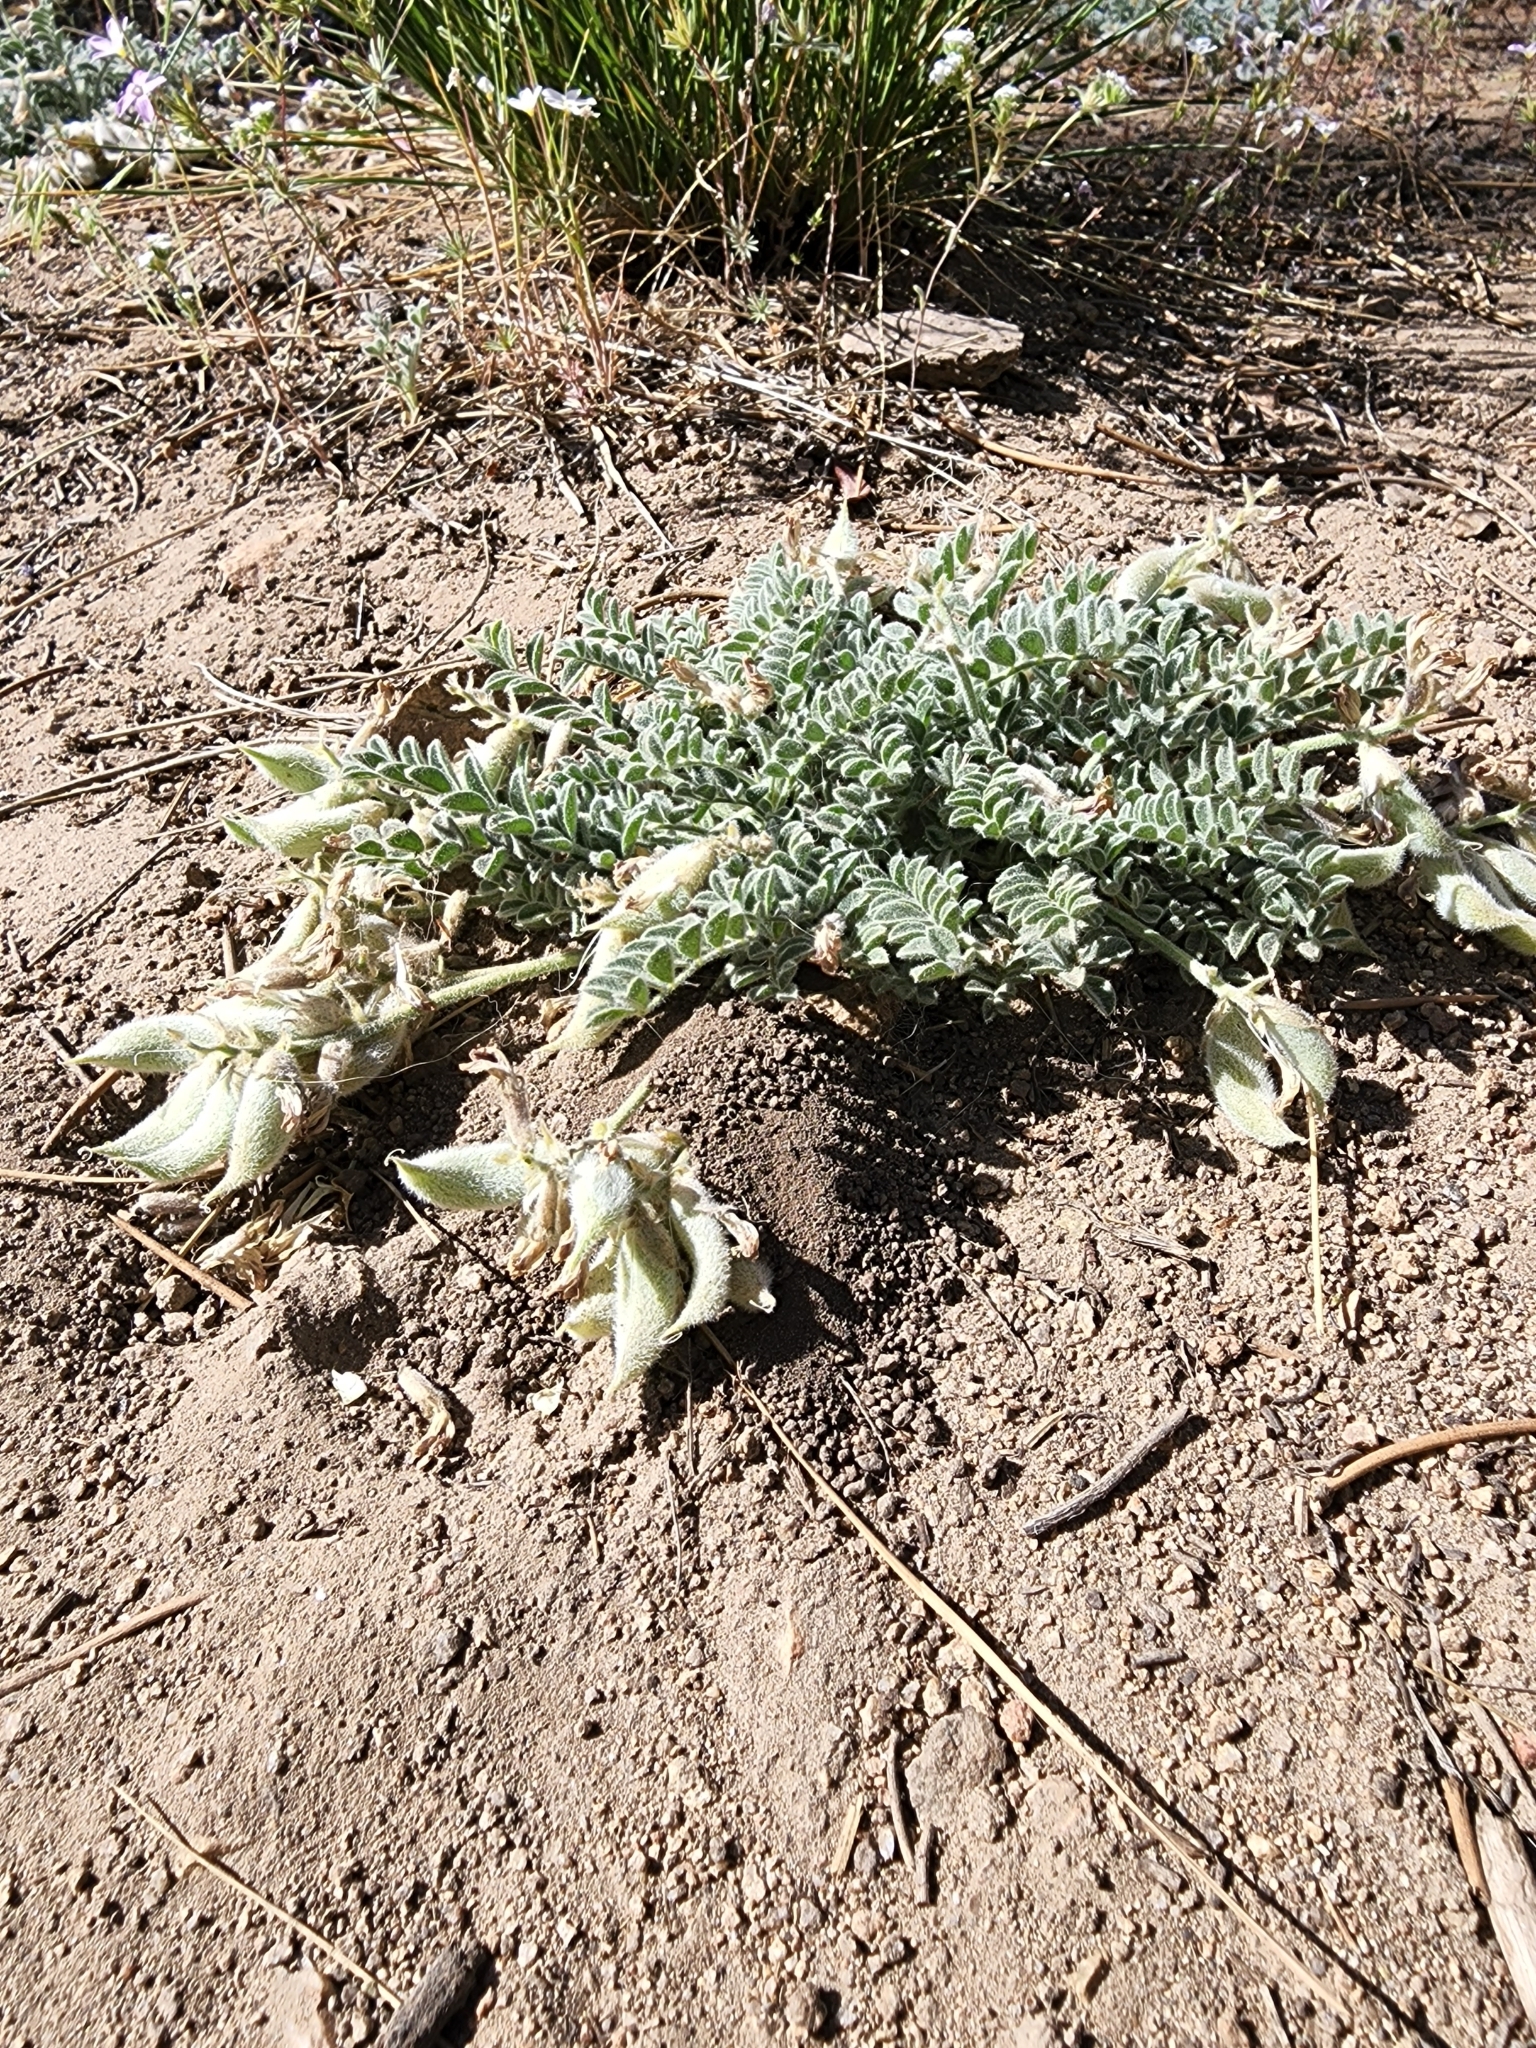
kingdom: Plantae
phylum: Tracheophyta
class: Magnoliopsida
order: Fabales
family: Fabaceae
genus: Astragalus
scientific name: Astragalus leucolobus
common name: Big bear valley woollypod
